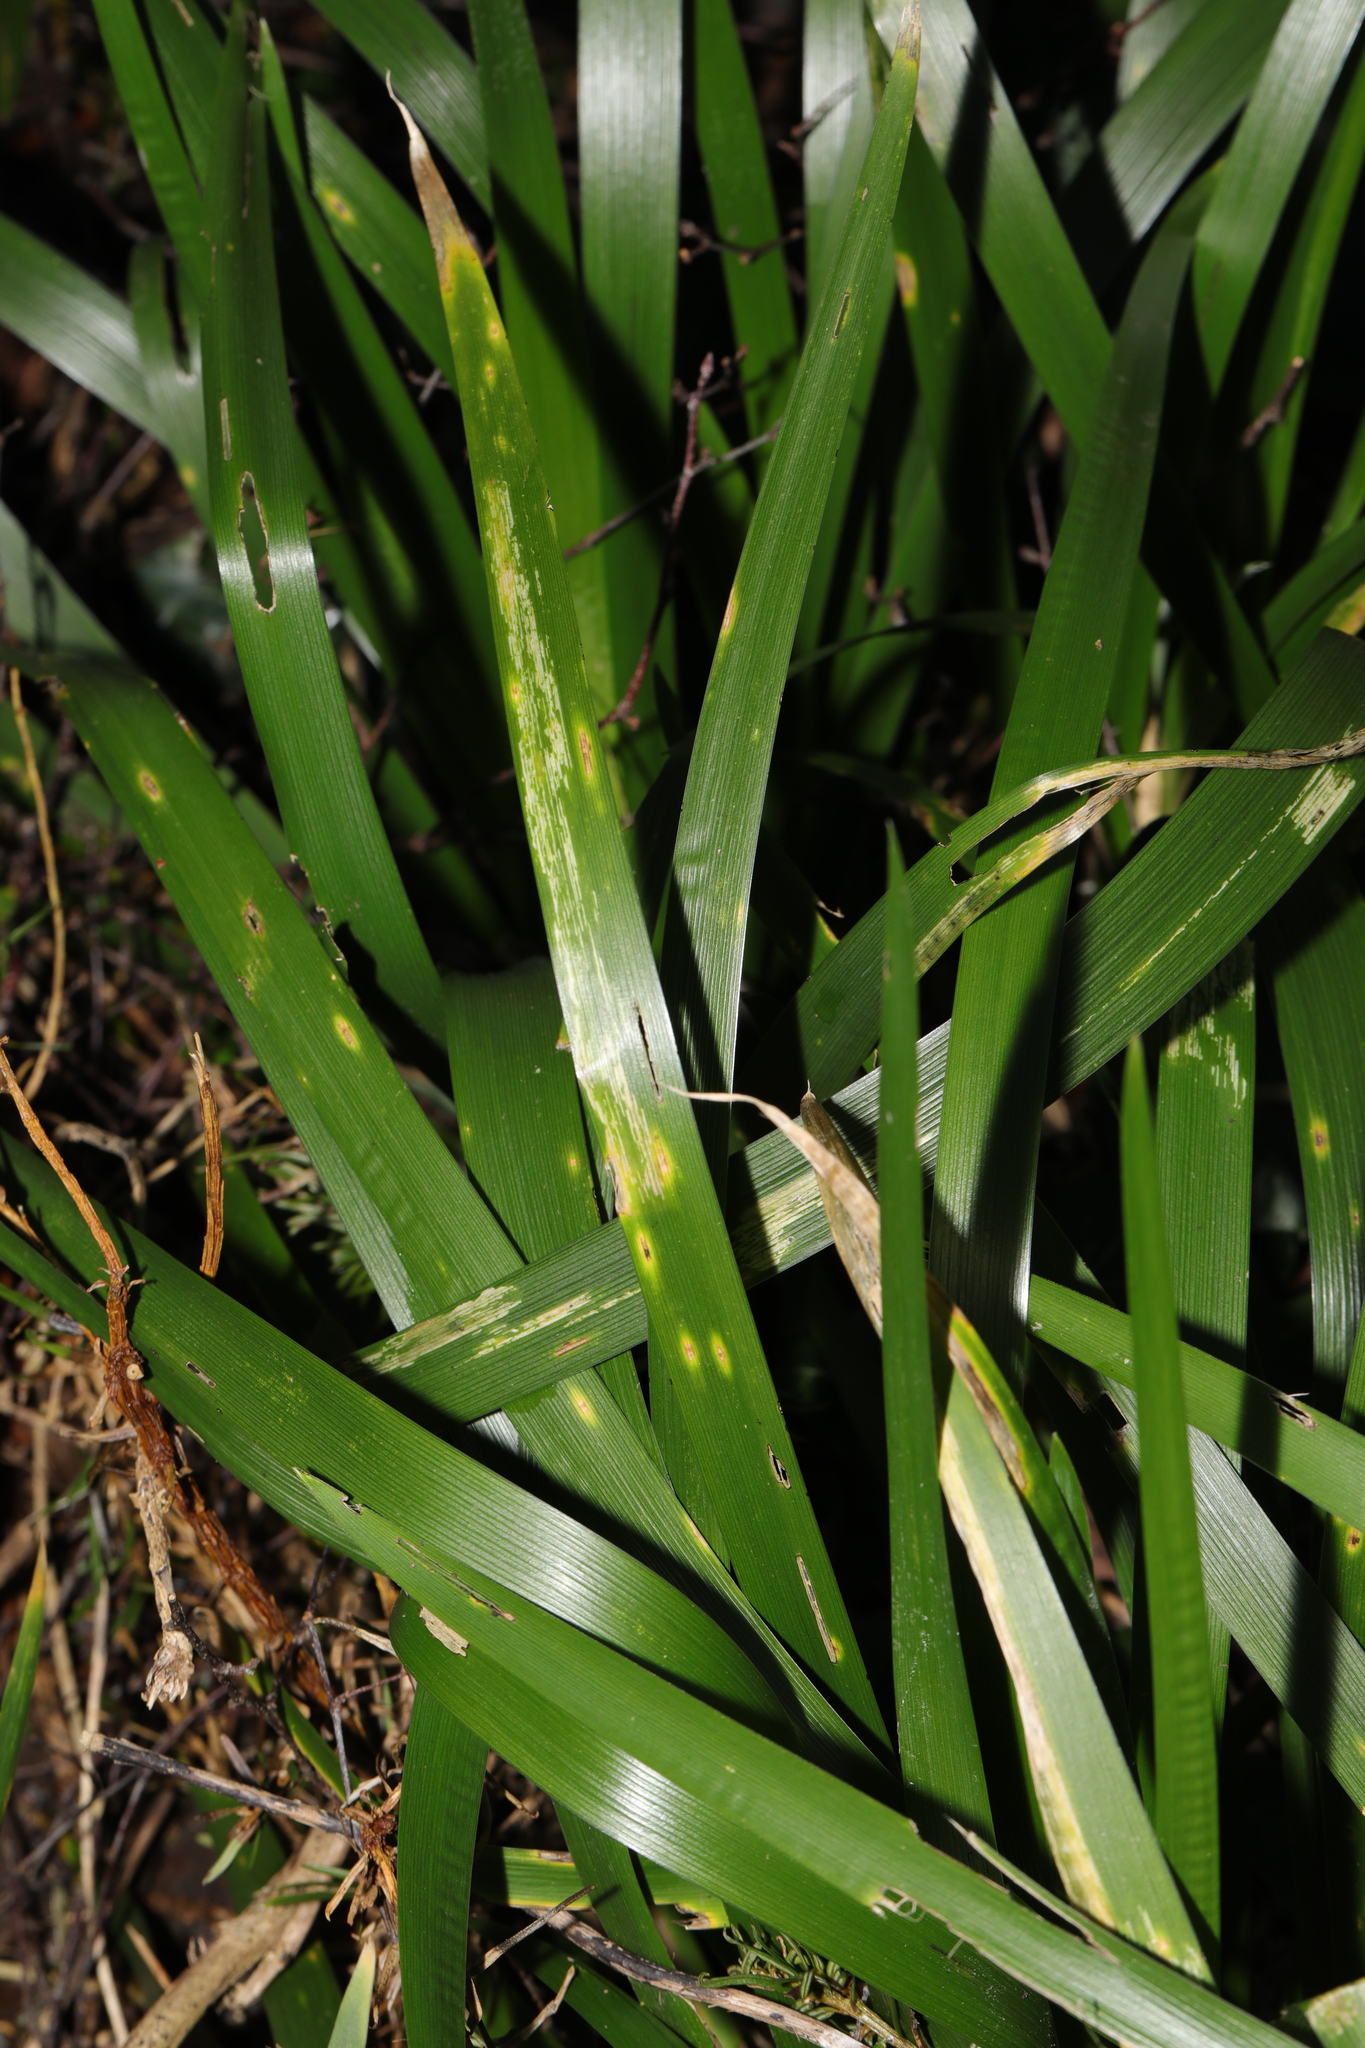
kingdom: Plantae
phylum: Tracheophyta
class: Liliopsida
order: Asparagales
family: Iridaceae
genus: Iris
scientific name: Iris foetidissima
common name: Stinking iris
